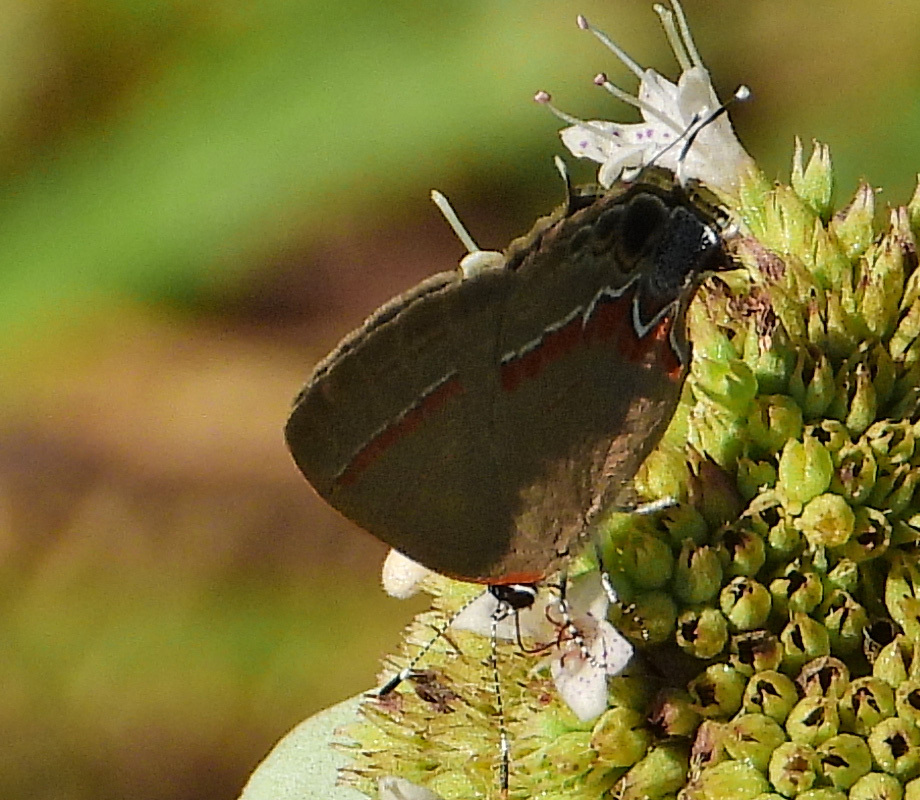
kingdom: Animalia
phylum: Arthropoda
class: Insecta
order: Lepidoptera
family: Lycaenidae
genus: Calycopis
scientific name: Calycopis cecrops
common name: Red-banded hairstreak
